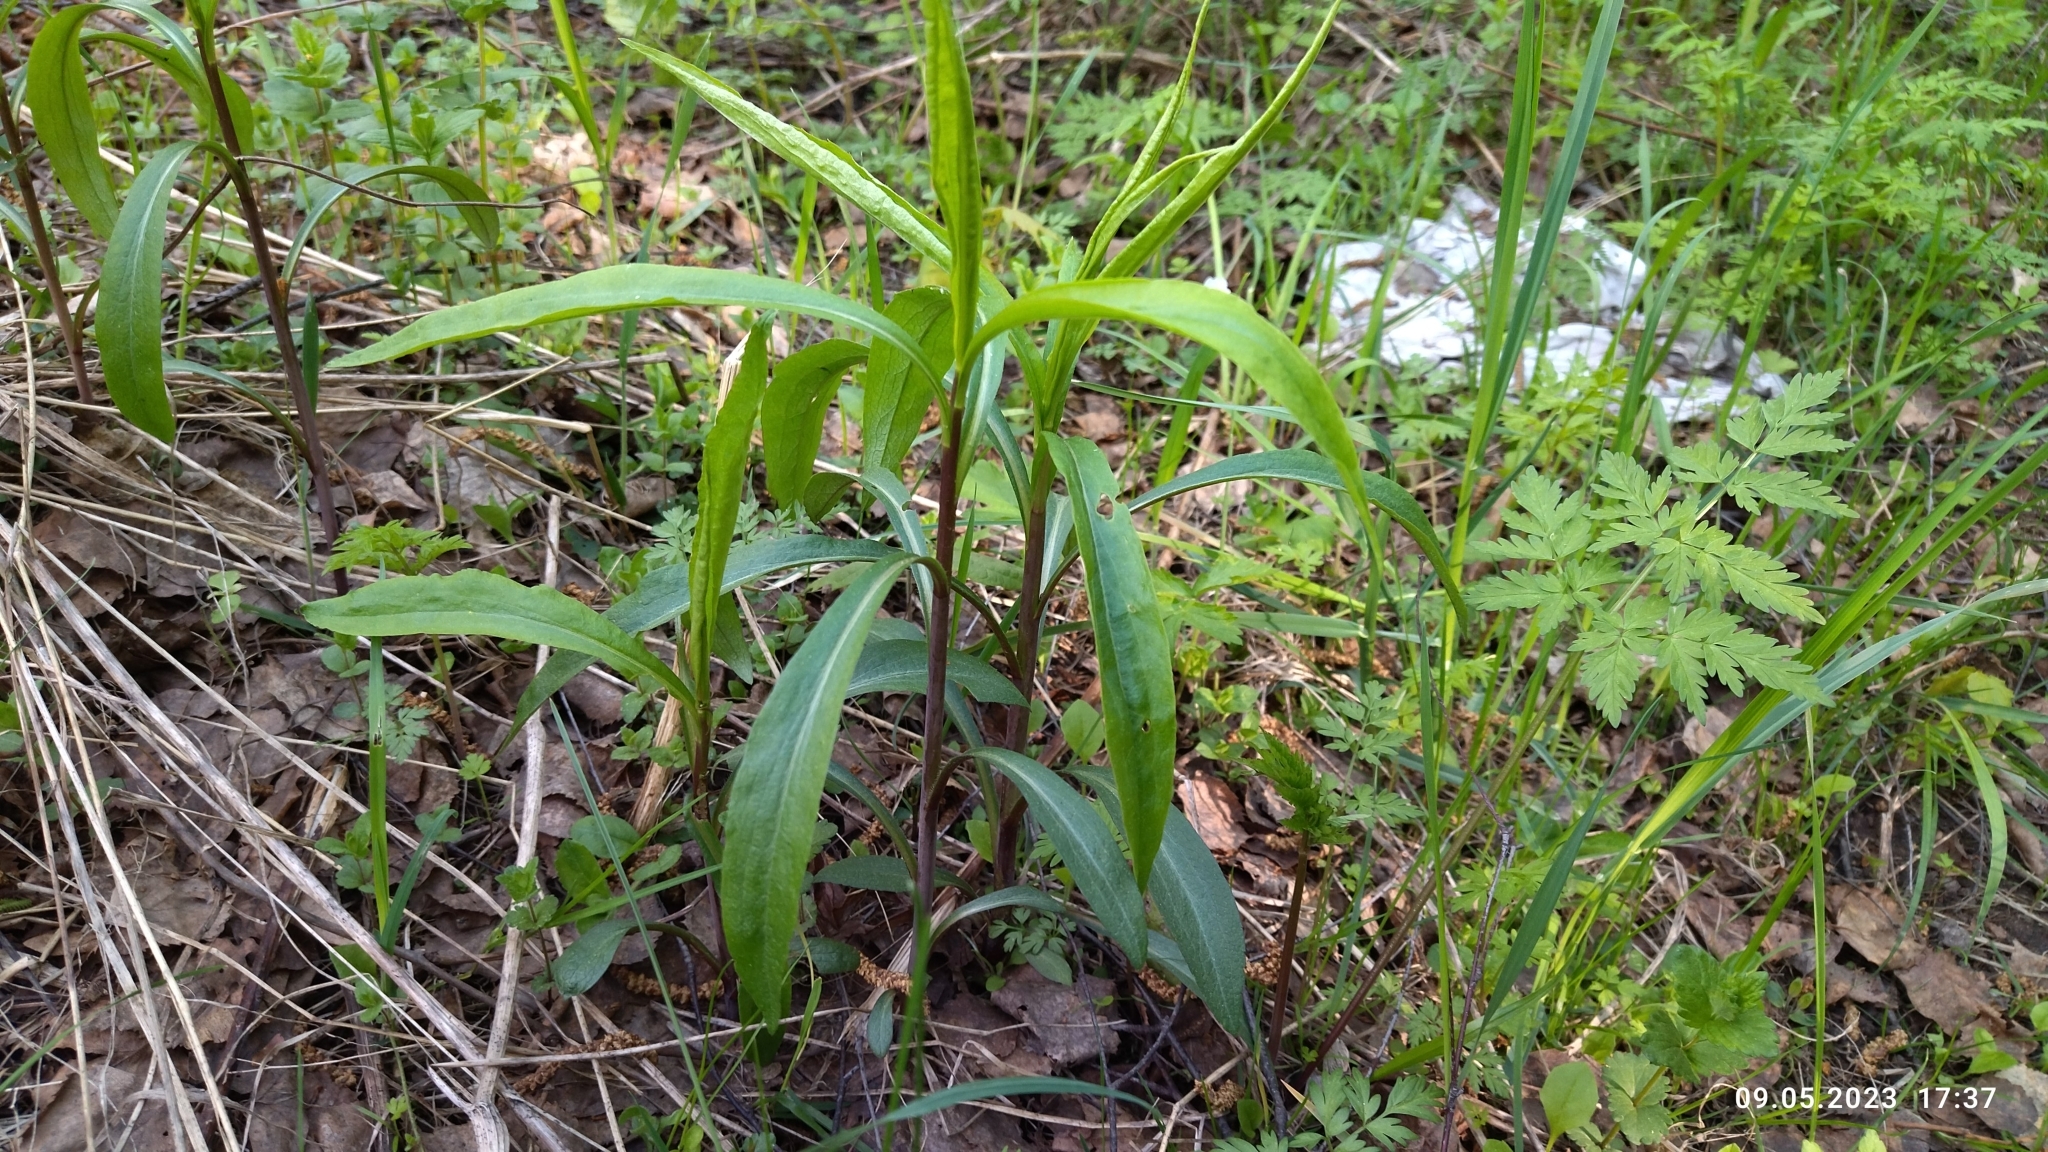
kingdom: Plantae
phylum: Tracheophyta
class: Magnoliopsida
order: Asterales
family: Asteraceae
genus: Solidago
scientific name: Solidago gigantea
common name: Giant goldenrod
